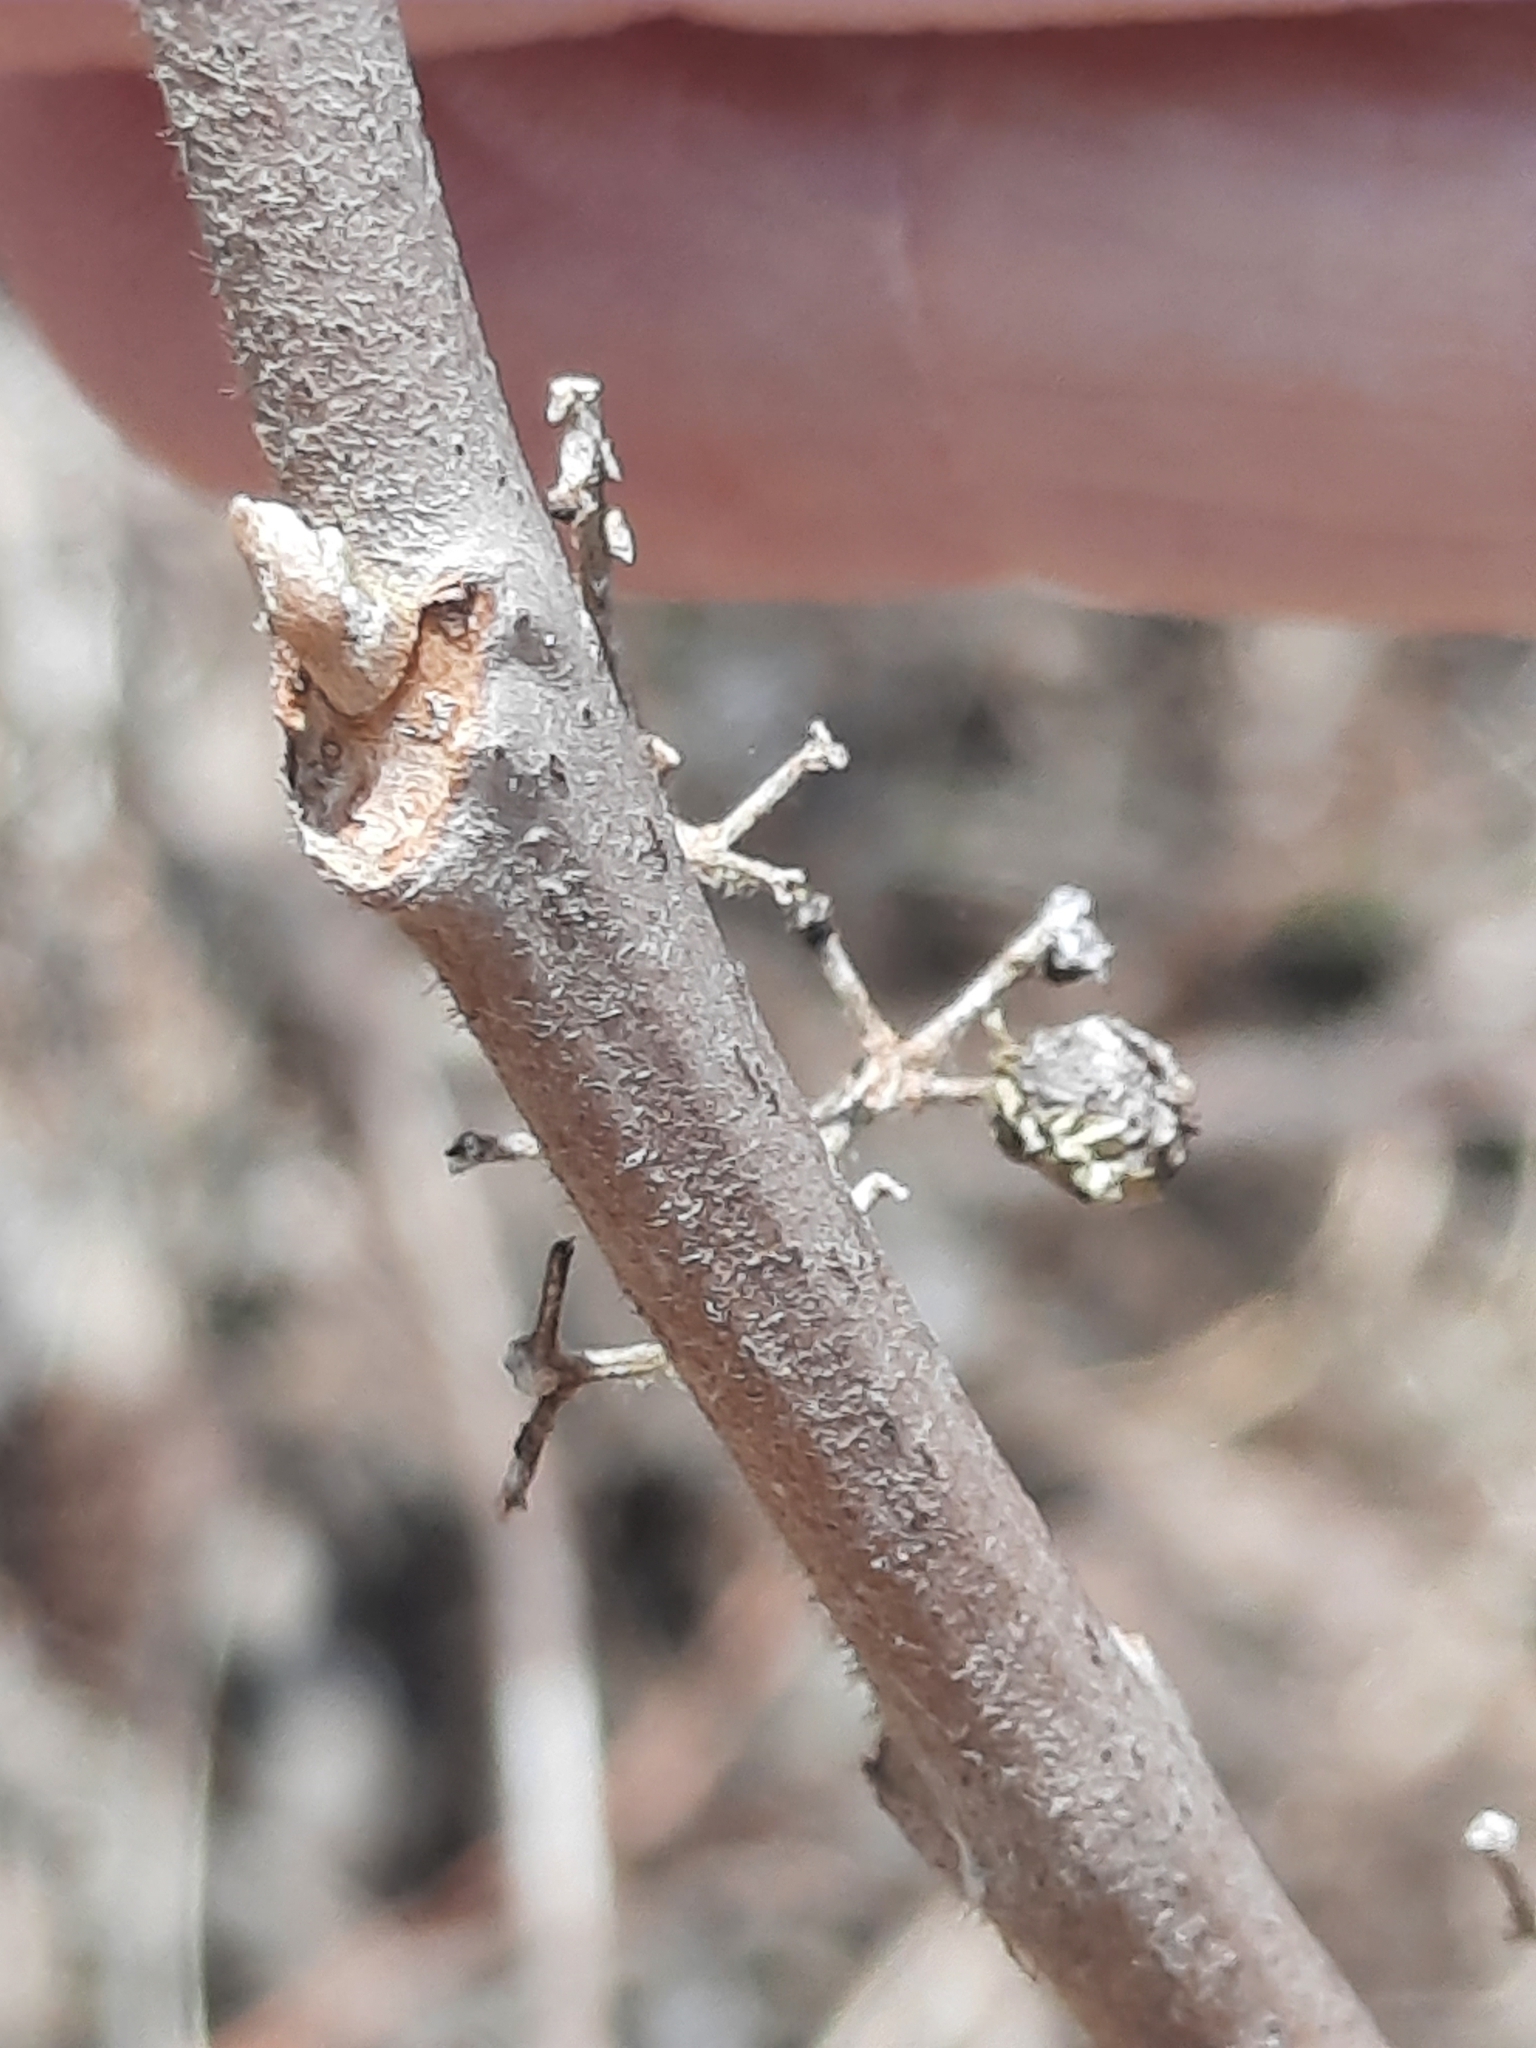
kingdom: Plantae
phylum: Tracheophyta
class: Magnoliopsida
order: Sapindales
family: Anacardiaceae
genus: Toxicodendron
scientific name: Toxicodendron radicans
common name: Poison ivy
